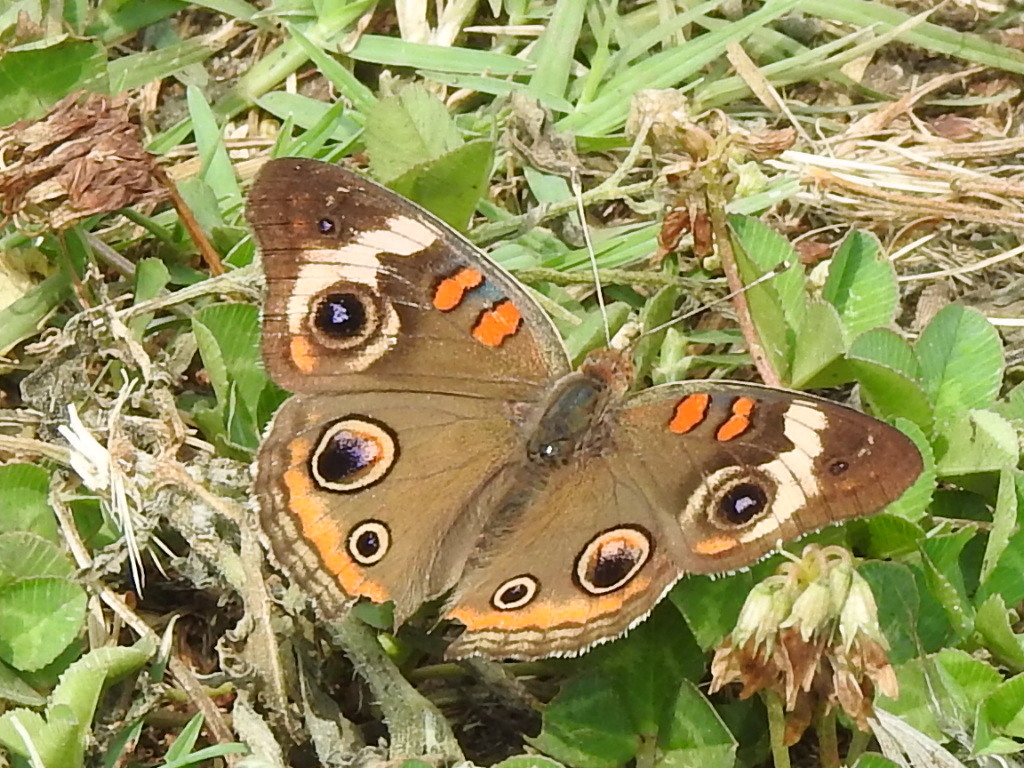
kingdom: Animalia
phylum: Arthropoda
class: Insecta
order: Lepidoptera
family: Nymphalidae
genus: Junonia
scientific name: Junonia coenia
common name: Common buckeye
